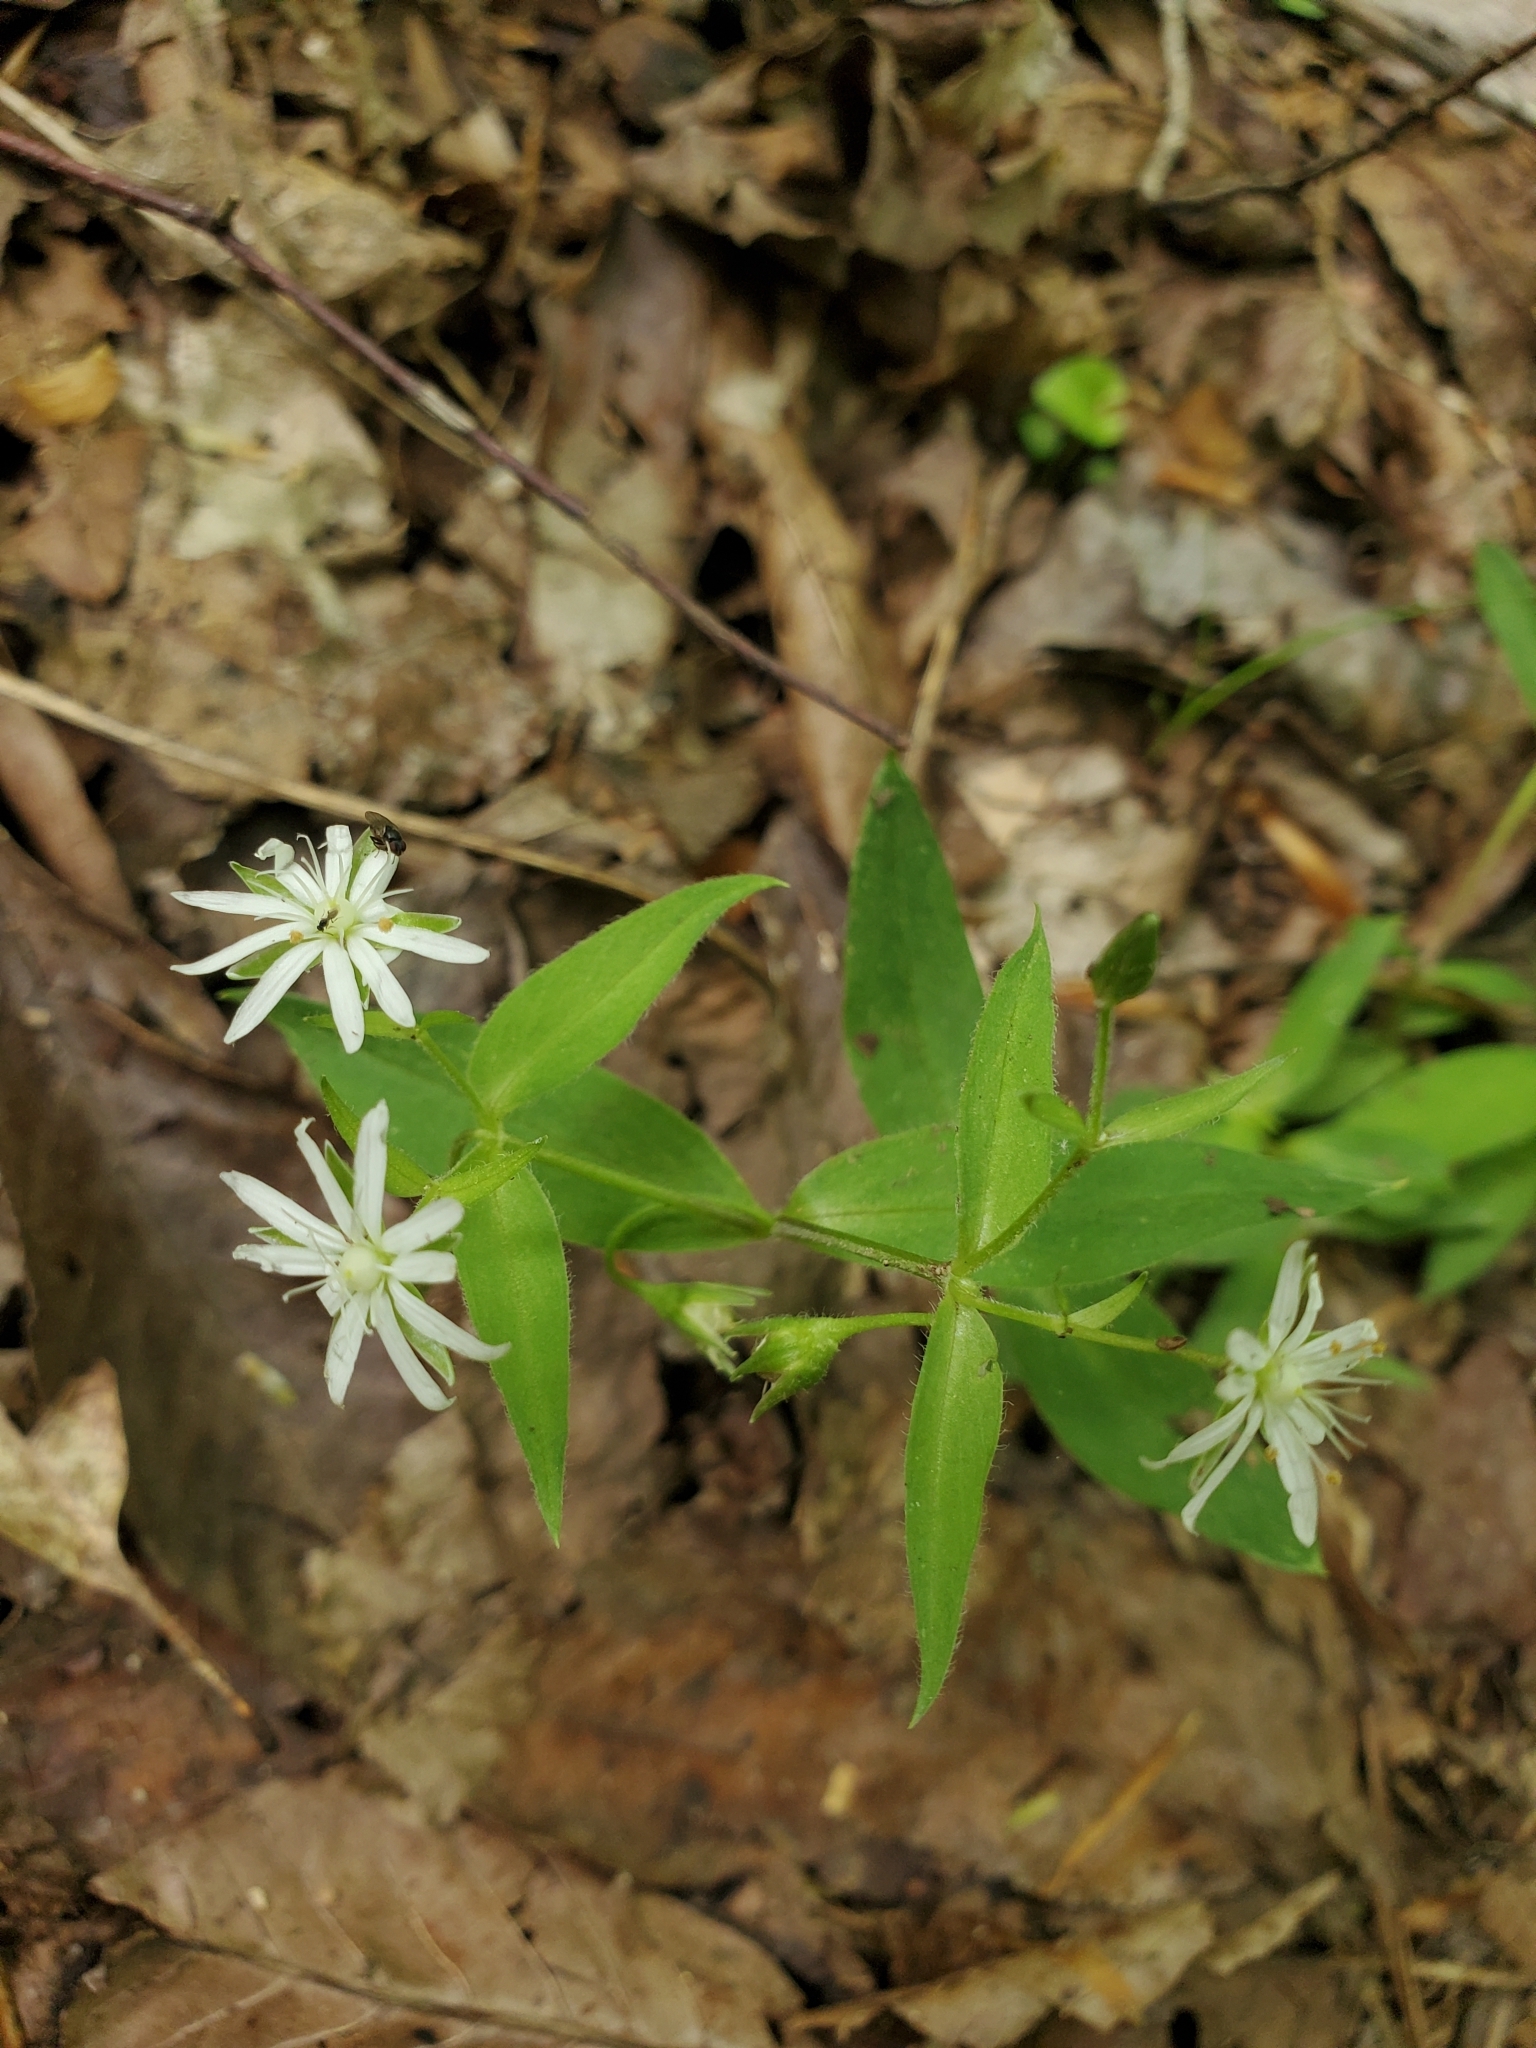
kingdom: Plantae
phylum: Tracheophyta
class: Magnoliopsida
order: Caryophyllales
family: Caryophyllaceae
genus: Stellaria
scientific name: Stellaria pubera
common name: Star chickweed
